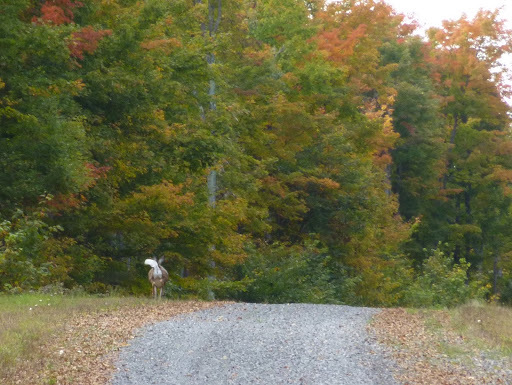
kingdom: Animalia
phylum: Chordata
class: Mammalia
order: Artiodactyla
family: Cervidae
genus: Odocoileus
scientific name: Odocoileus virginianus
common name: White-tailed deer
